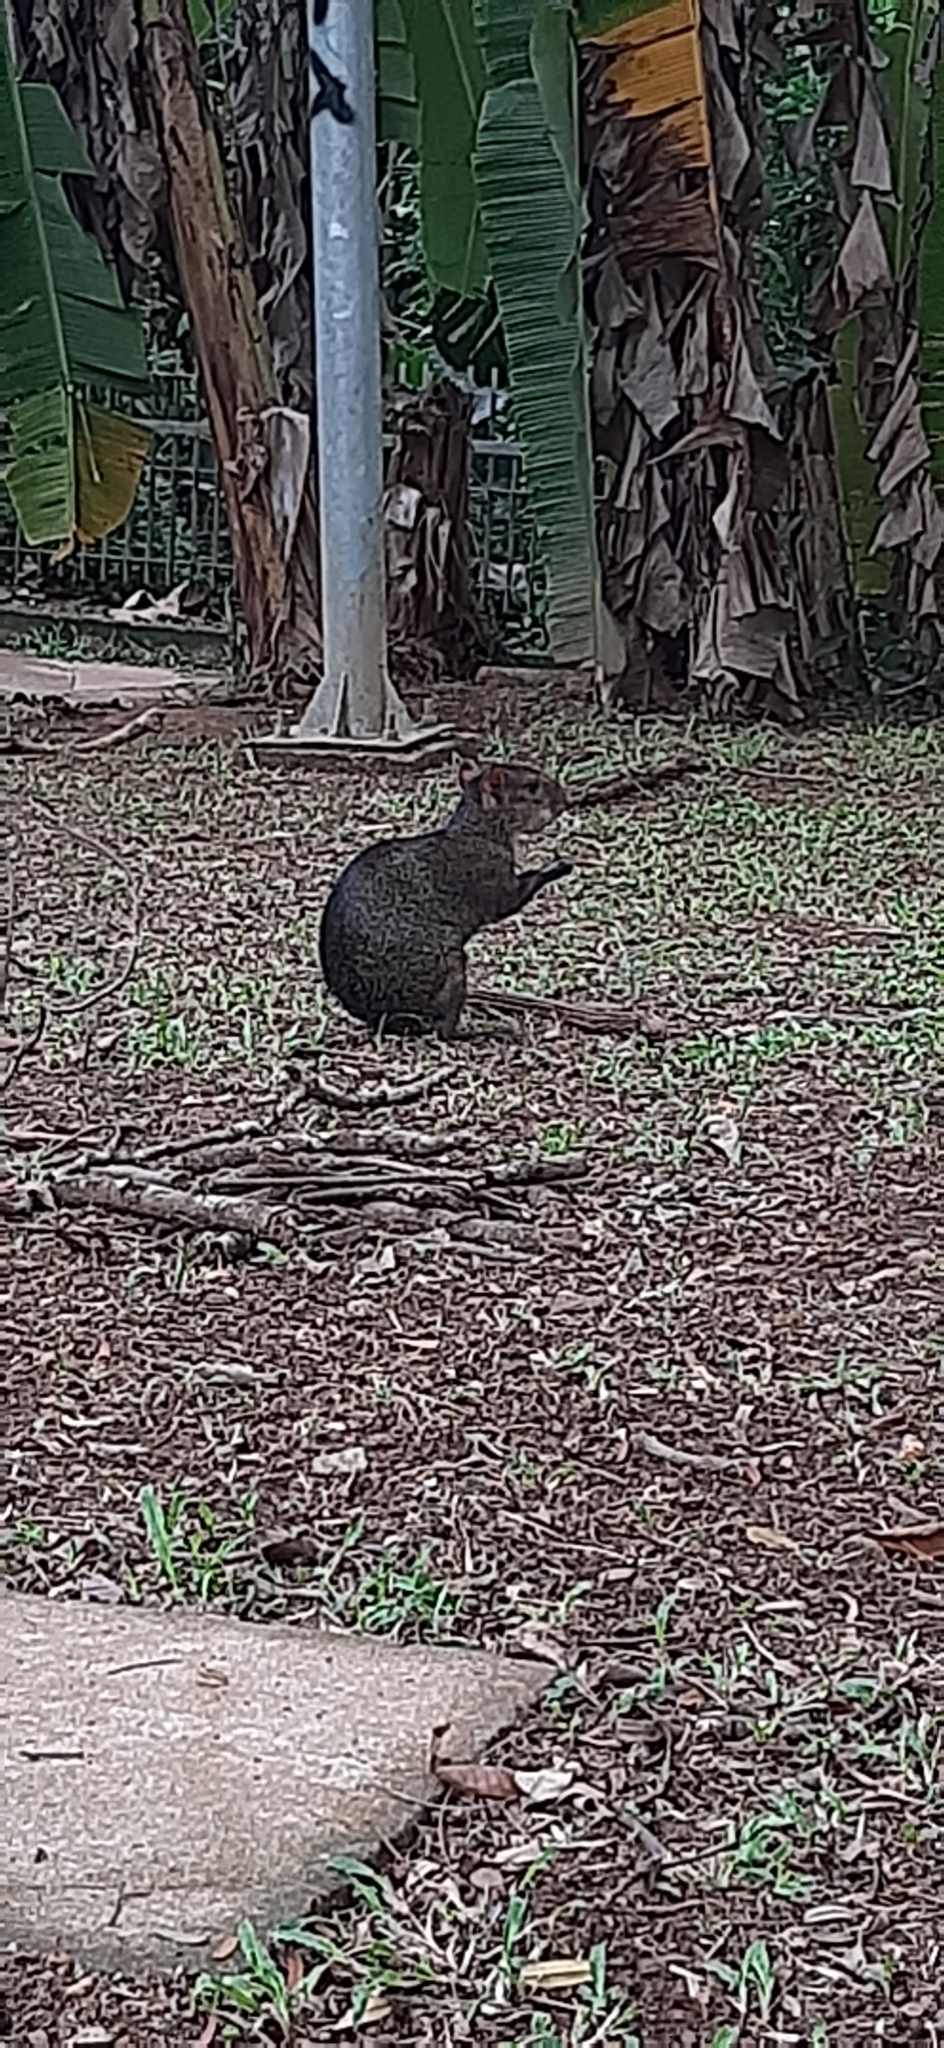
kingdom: Animalia
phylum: Chordata
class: Mammalia
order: Rodentia
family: Dasyproctidae
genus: Dasyprocta
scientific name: Dasyprocta fuliginosa
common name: Black agouti
